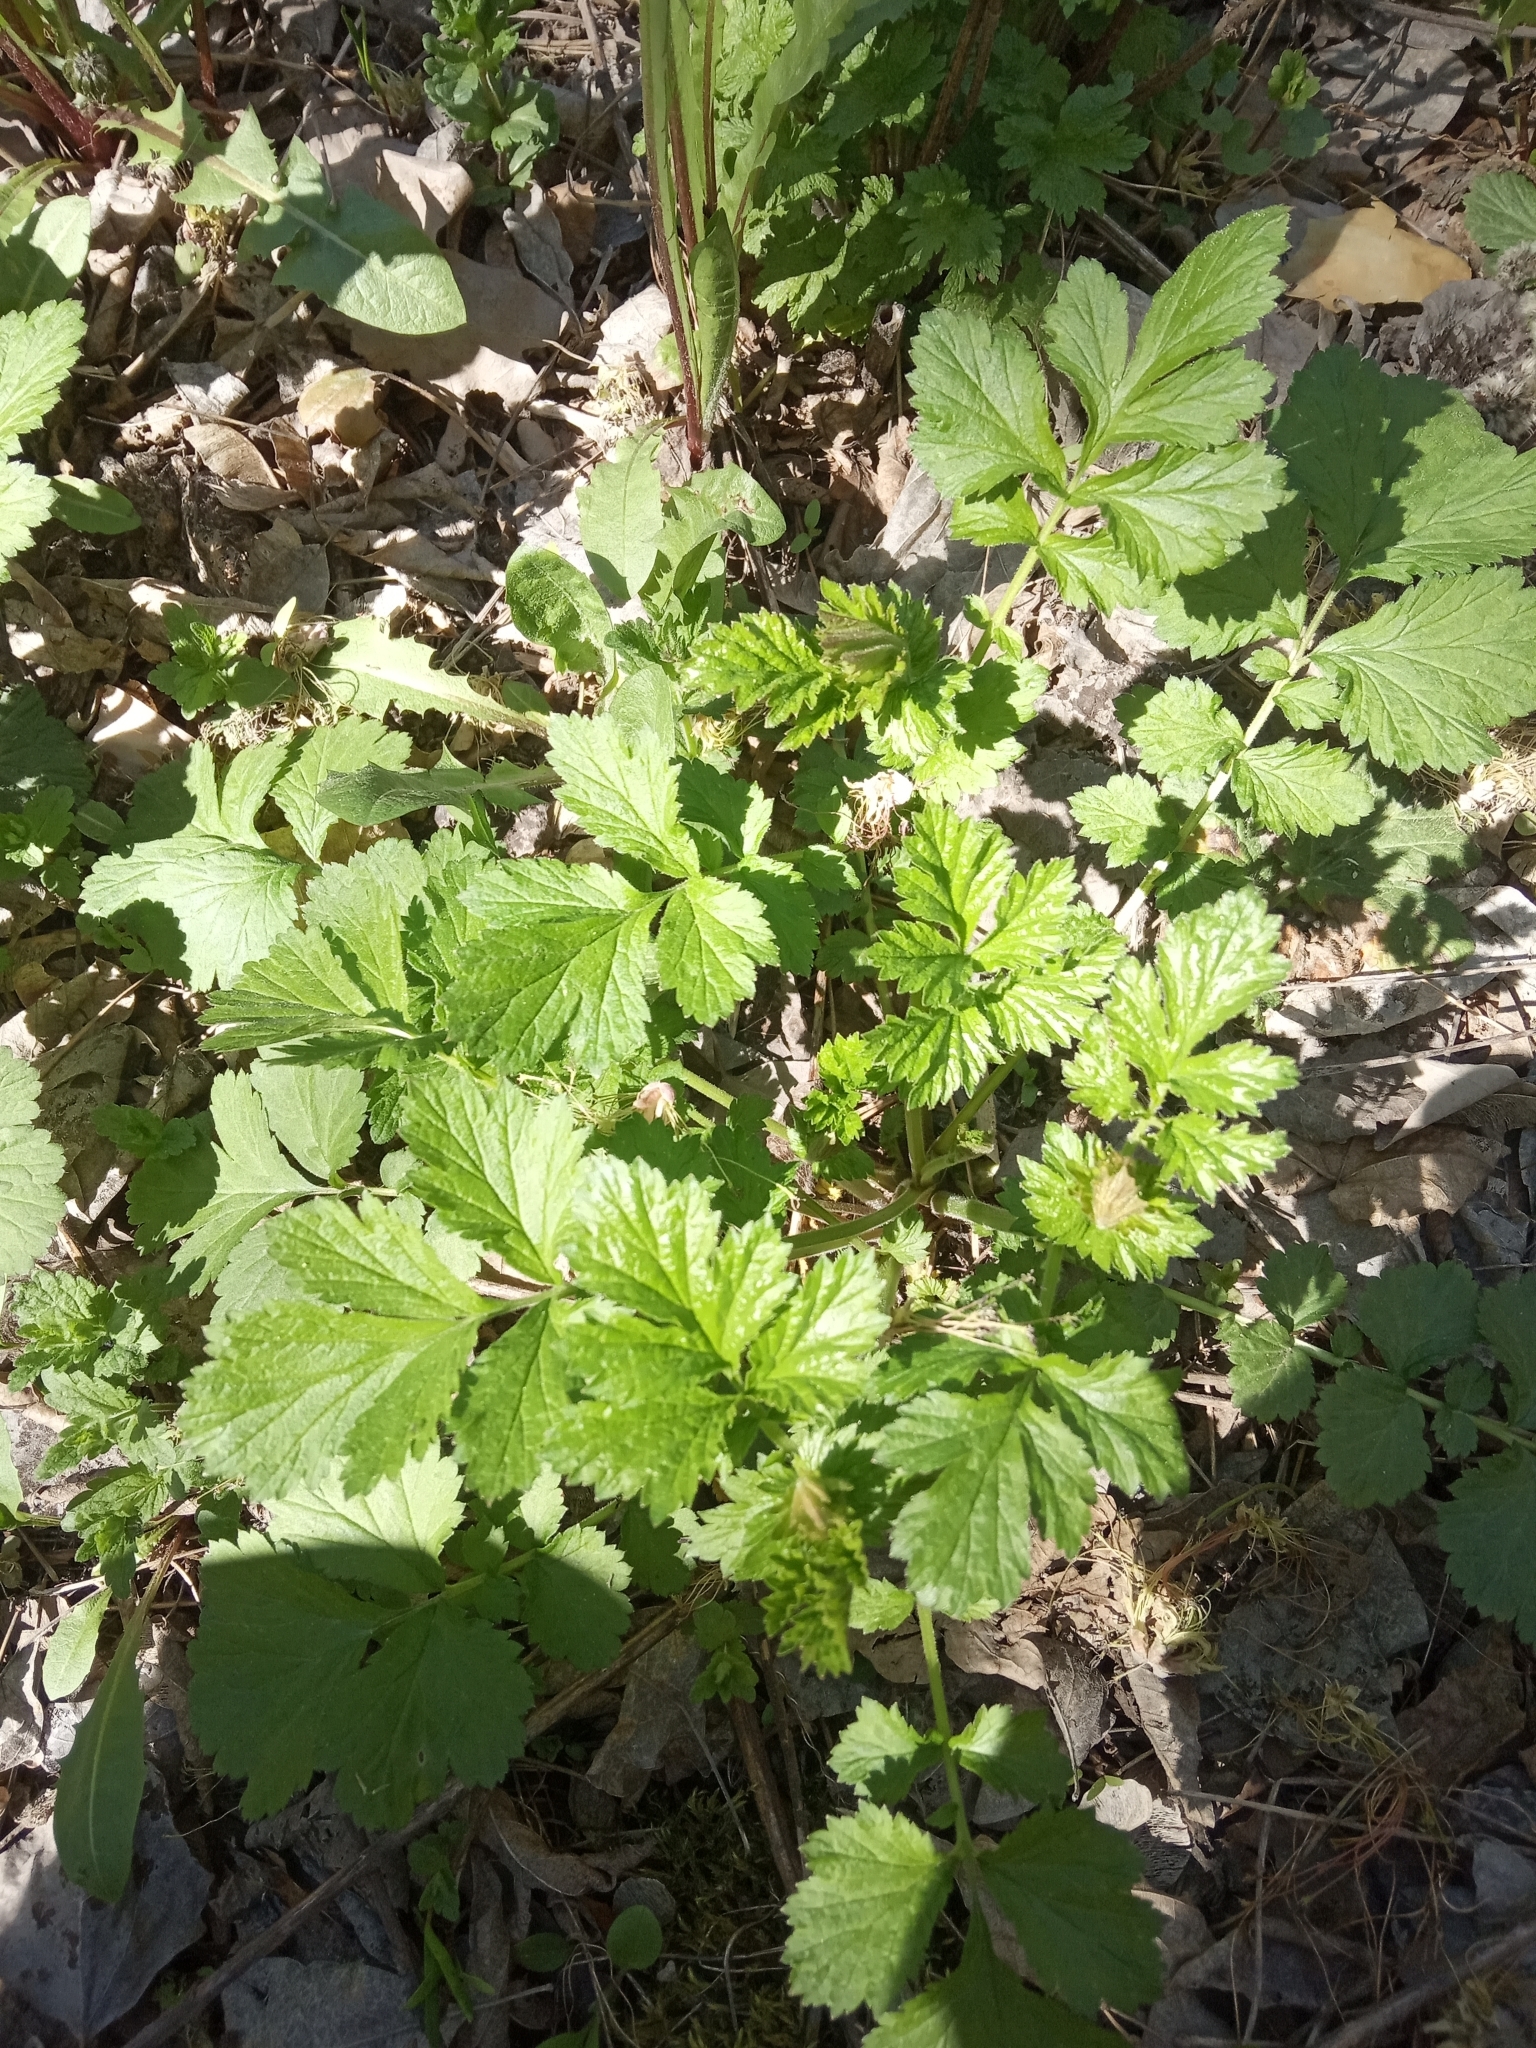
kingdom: Plantae
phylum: Tracheophyta
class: Magnoliopsida
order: Rosales
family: Rosaceae
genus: Geum
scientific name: Geum urbanum
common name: Wood avens
